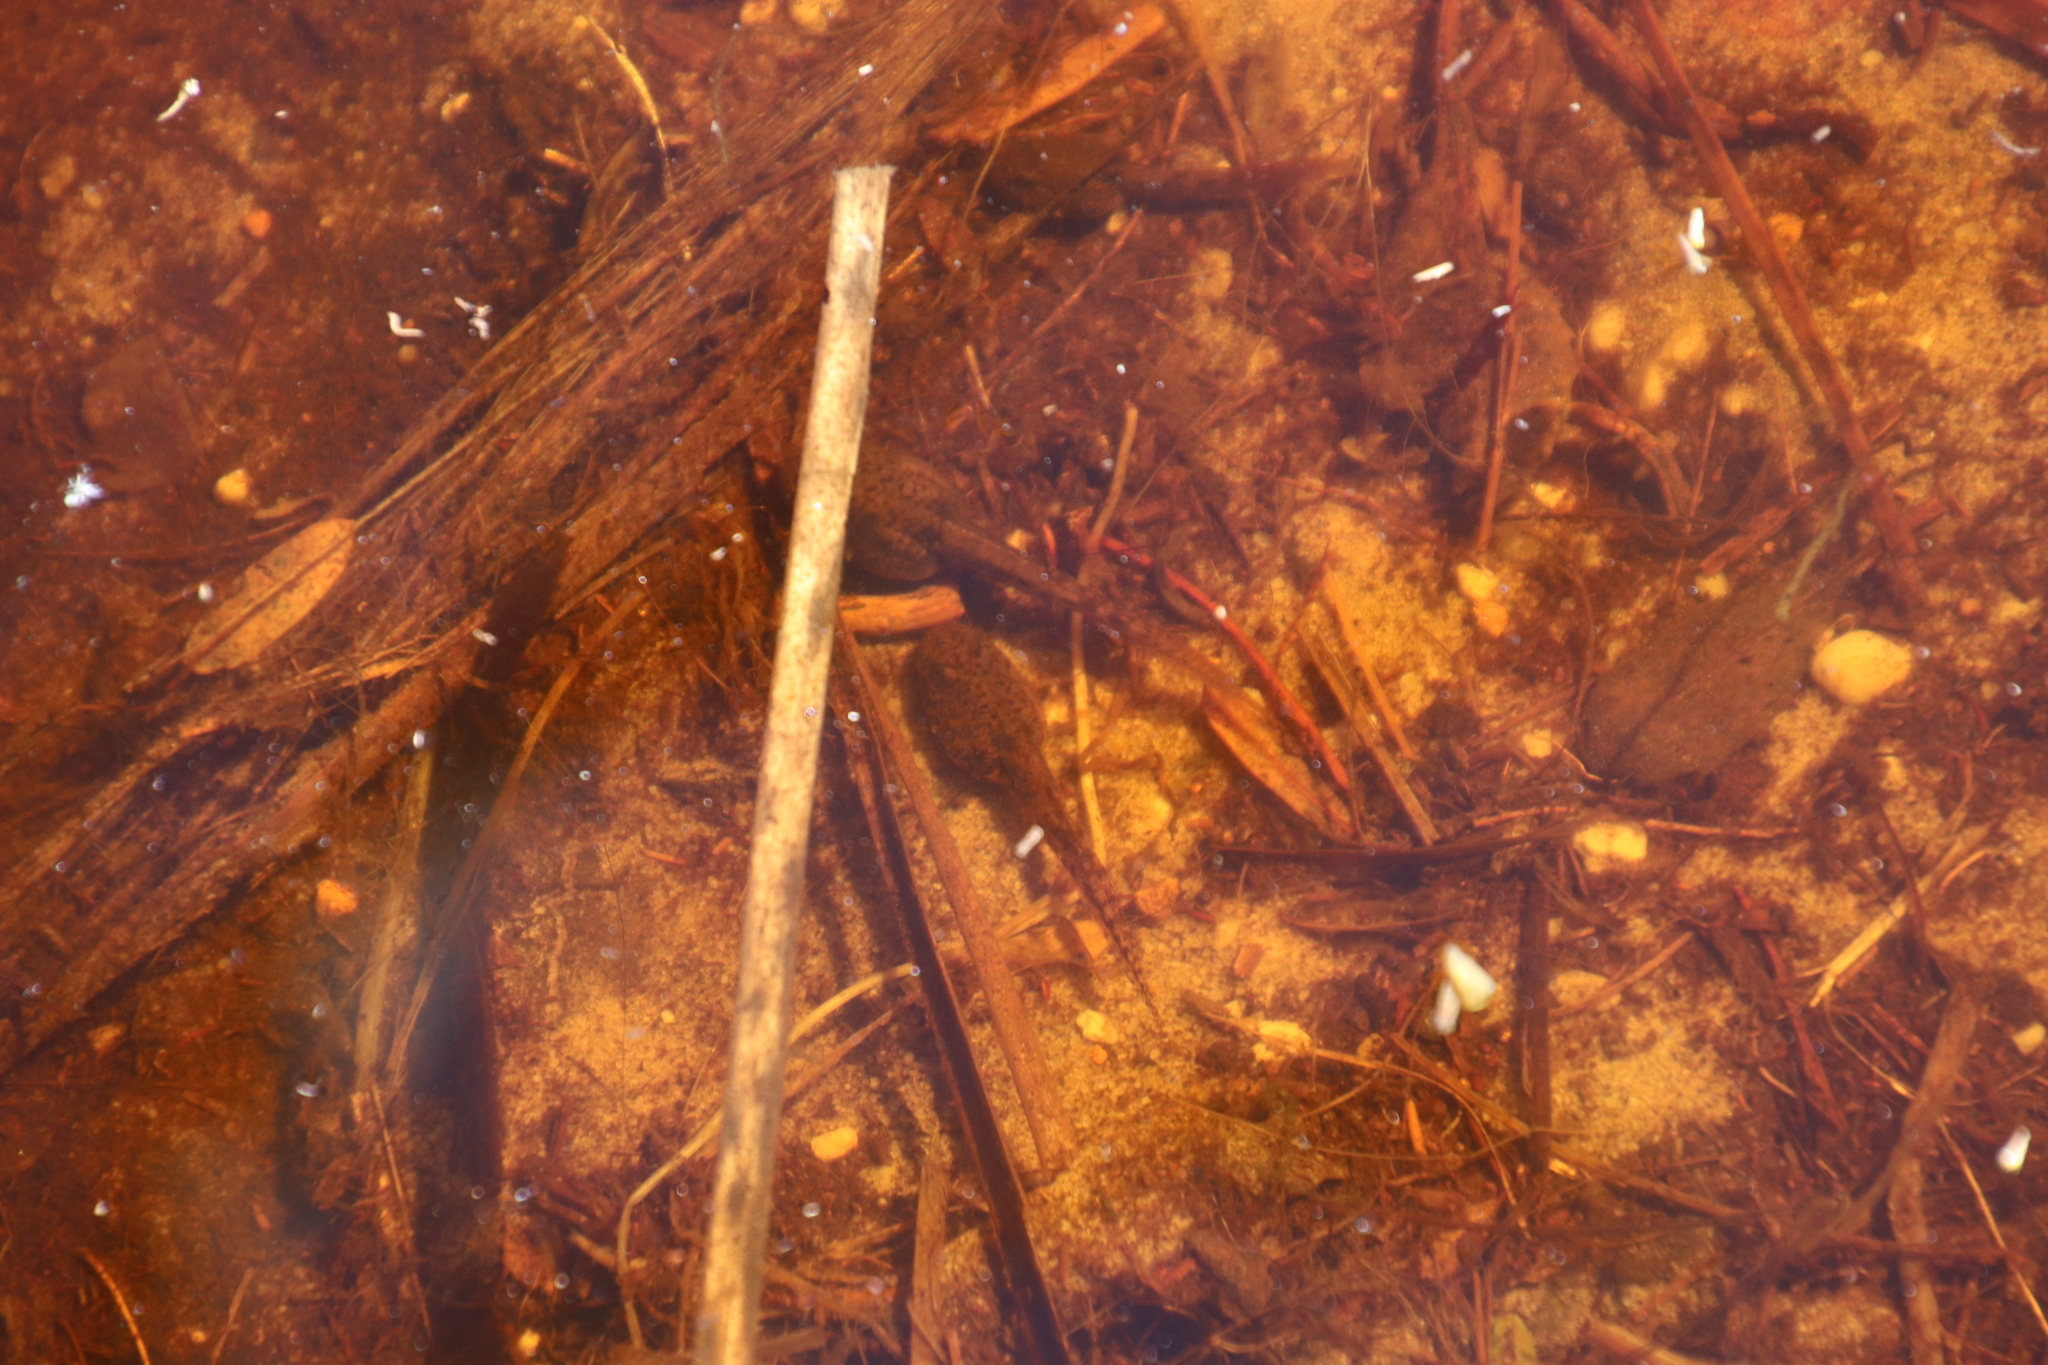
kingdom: Animalia
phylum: Chordata
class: Amphibia
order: Anura
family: Pyxicephalidae
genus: Amietia
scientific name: Amietia fuscigula
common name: Cape rana
